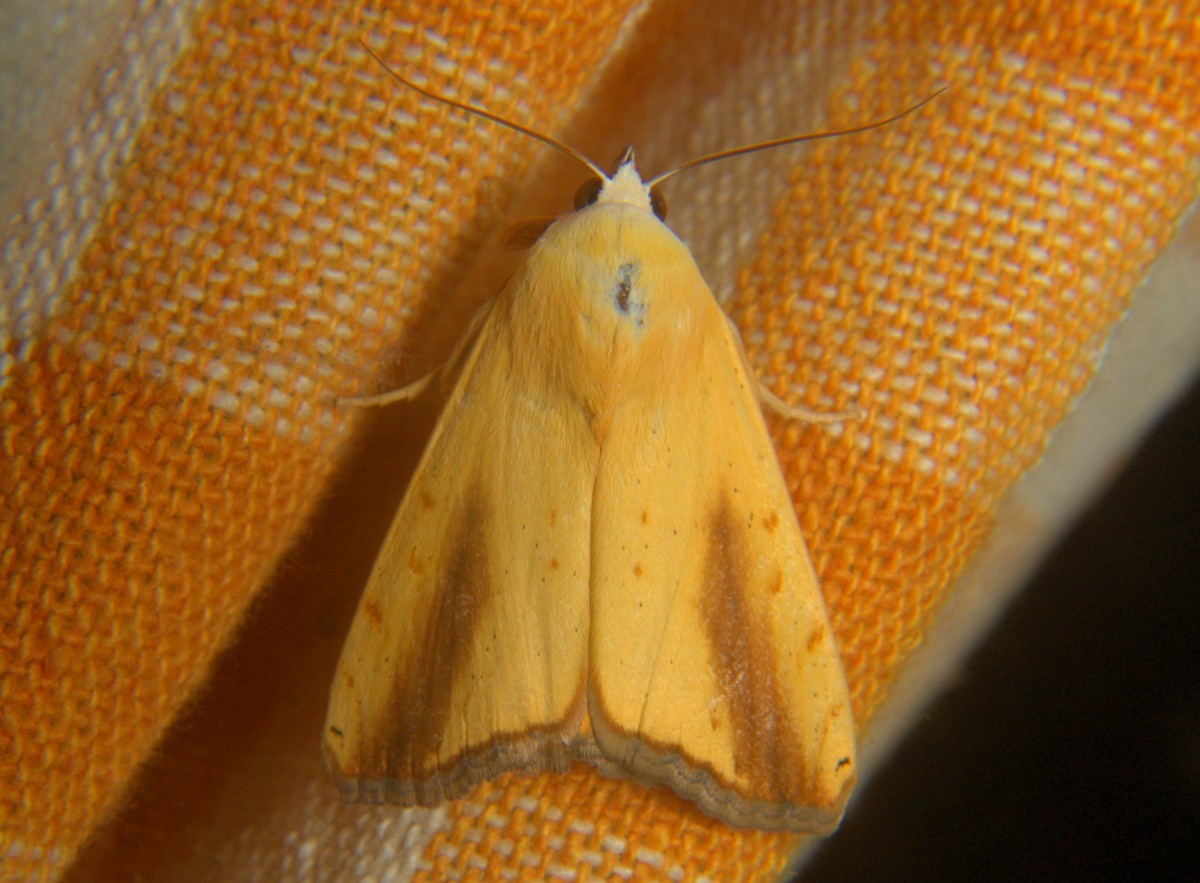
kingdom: Animalia
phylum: Arthropoda
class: Insecta
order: Lepidoptera
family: Nolidae
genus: Xanthodes
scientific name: Xanthodes intersepta
